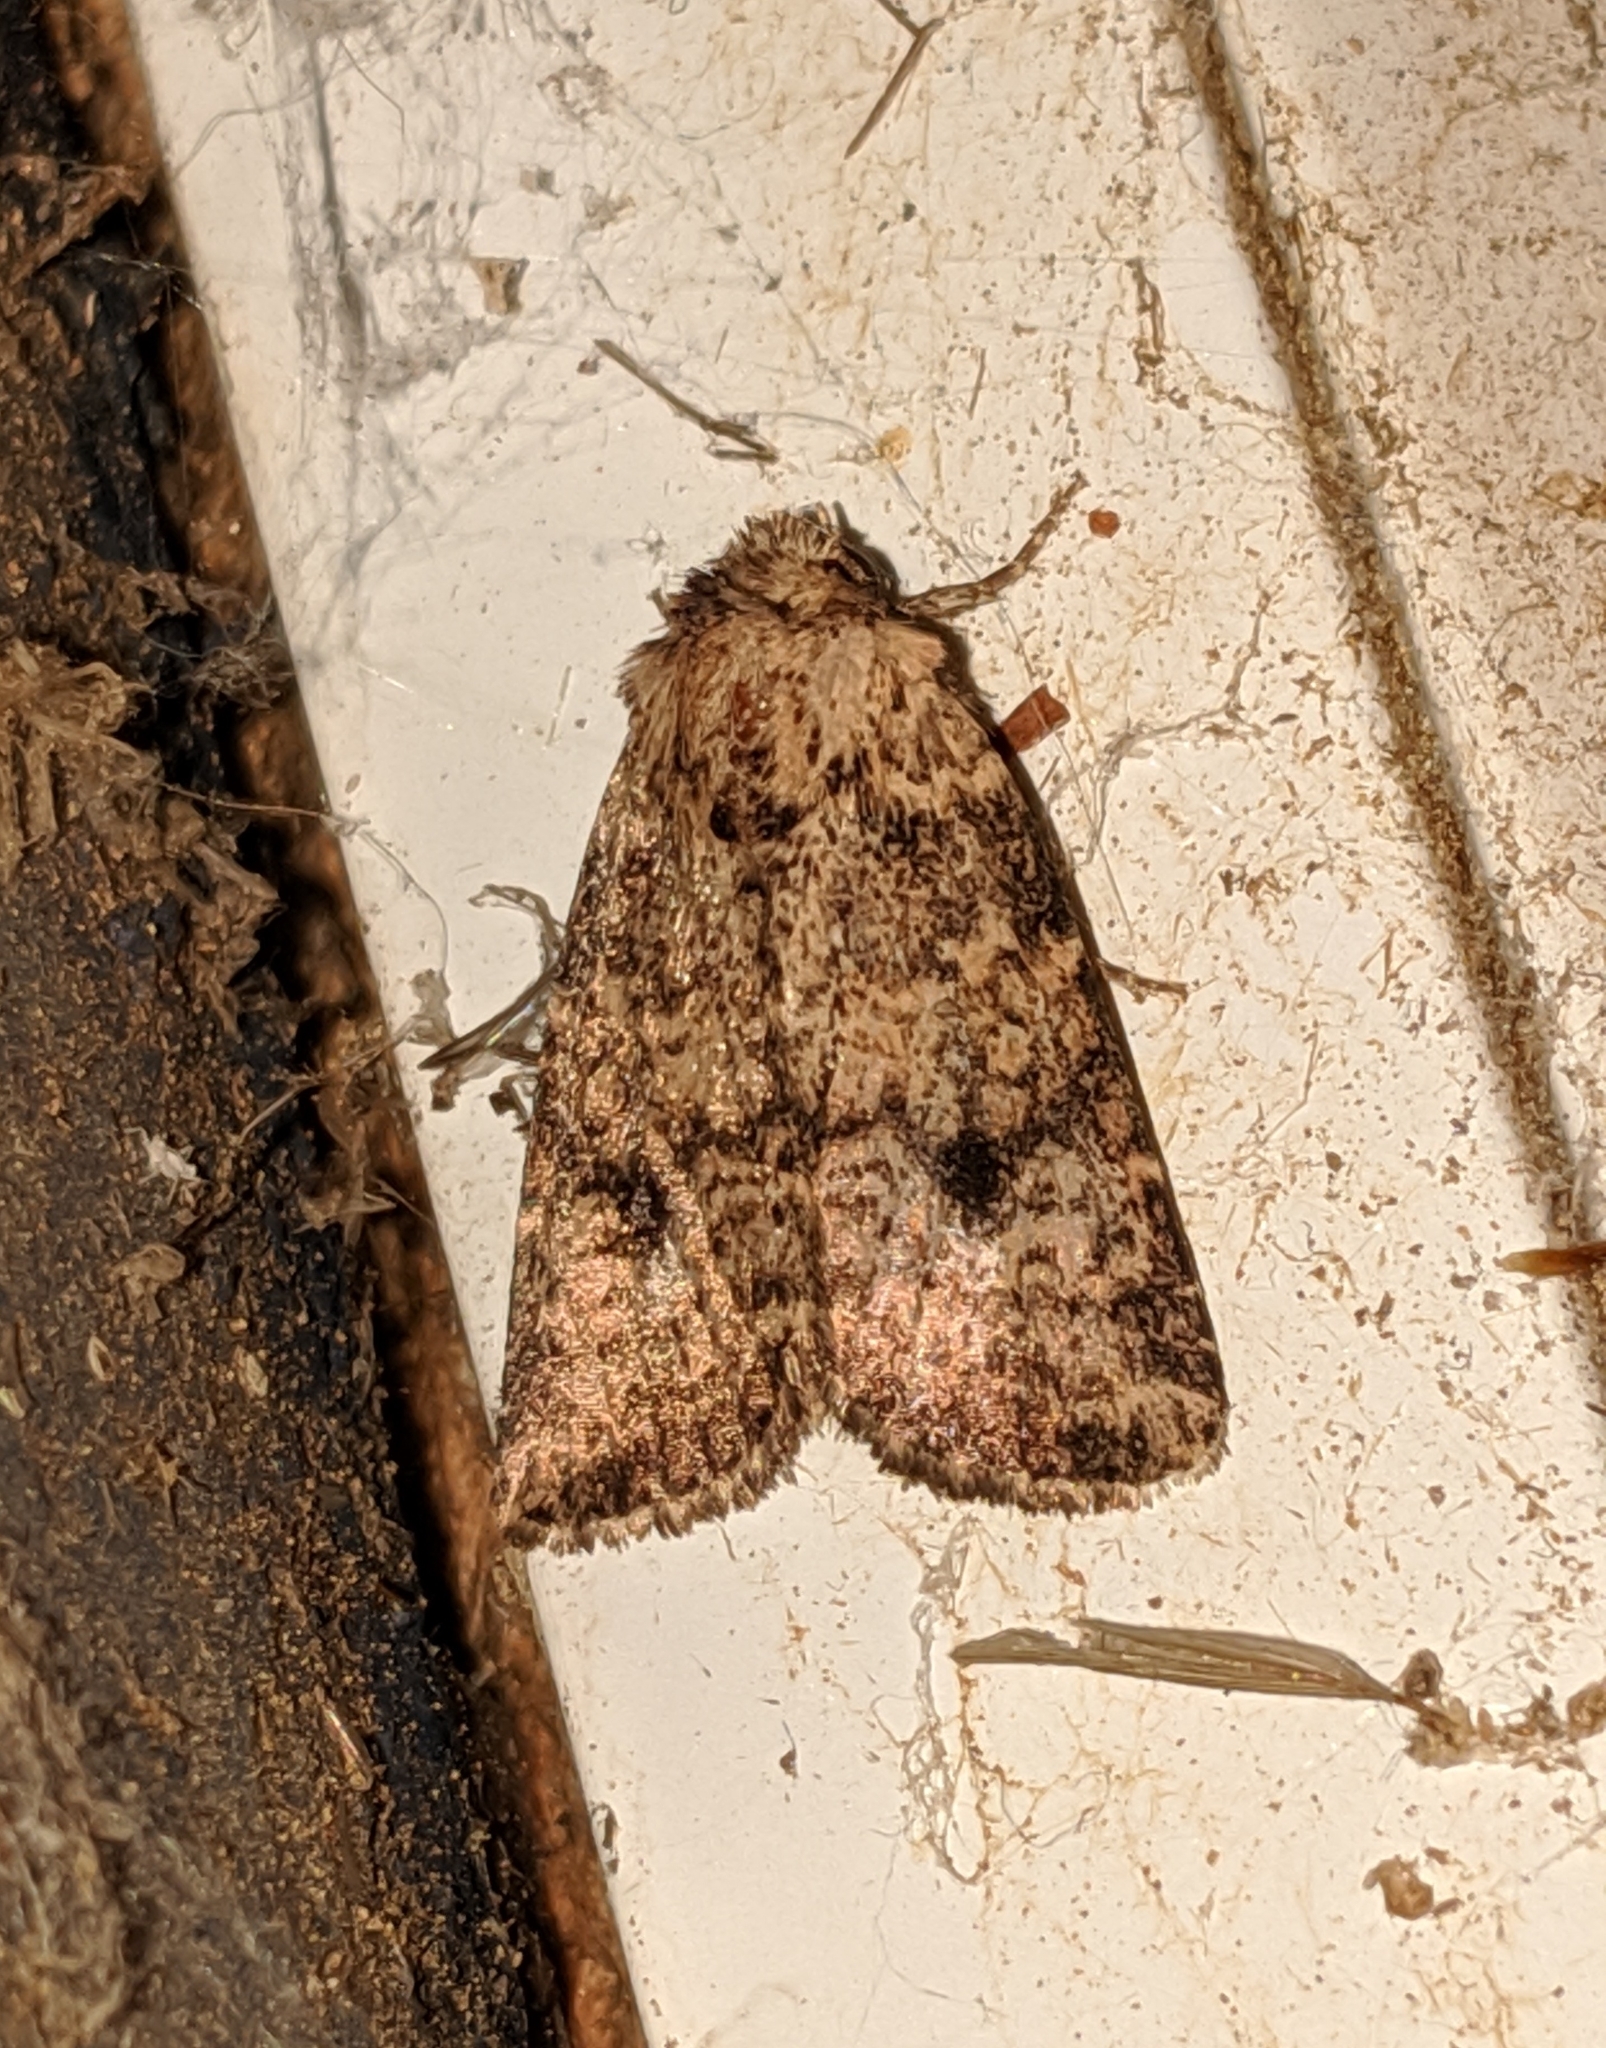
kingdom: Animalia
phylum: Arthropoda
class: Insecta
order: Lepidoptera
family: Noctuidae
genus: Homorthodes
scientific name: Homorthodes hanhami
